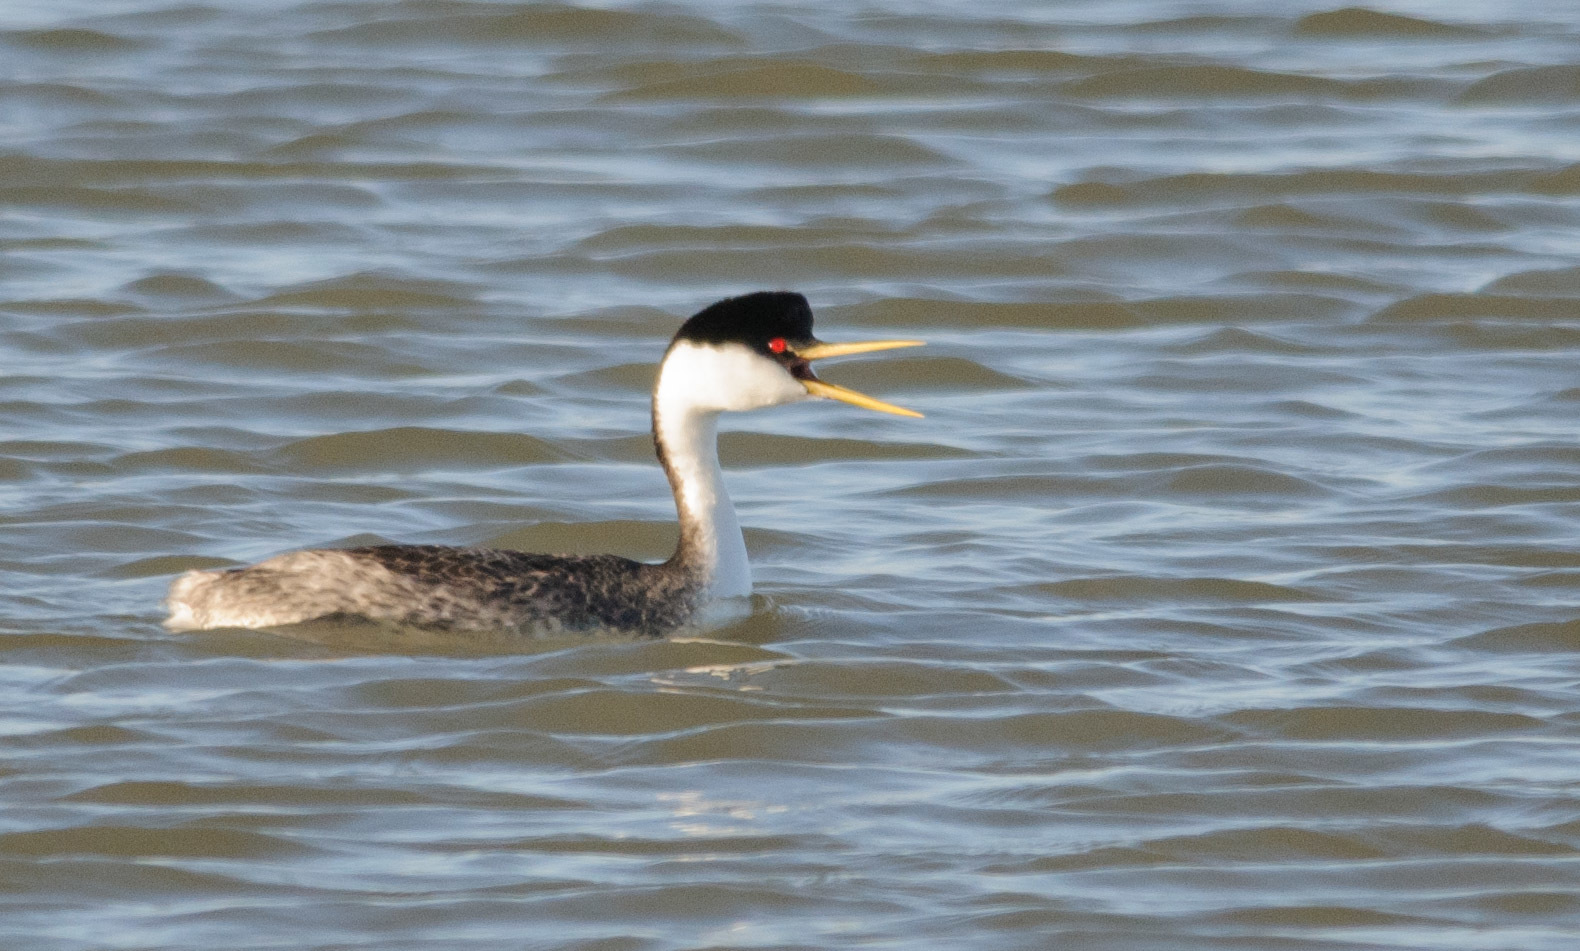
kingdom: Animalia
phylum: Chordata
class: Aves
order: Podicipediformes
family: Podicipedidae
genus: Aechmophorus
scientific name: Aechmophorus occidentalis
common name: Western grebe
